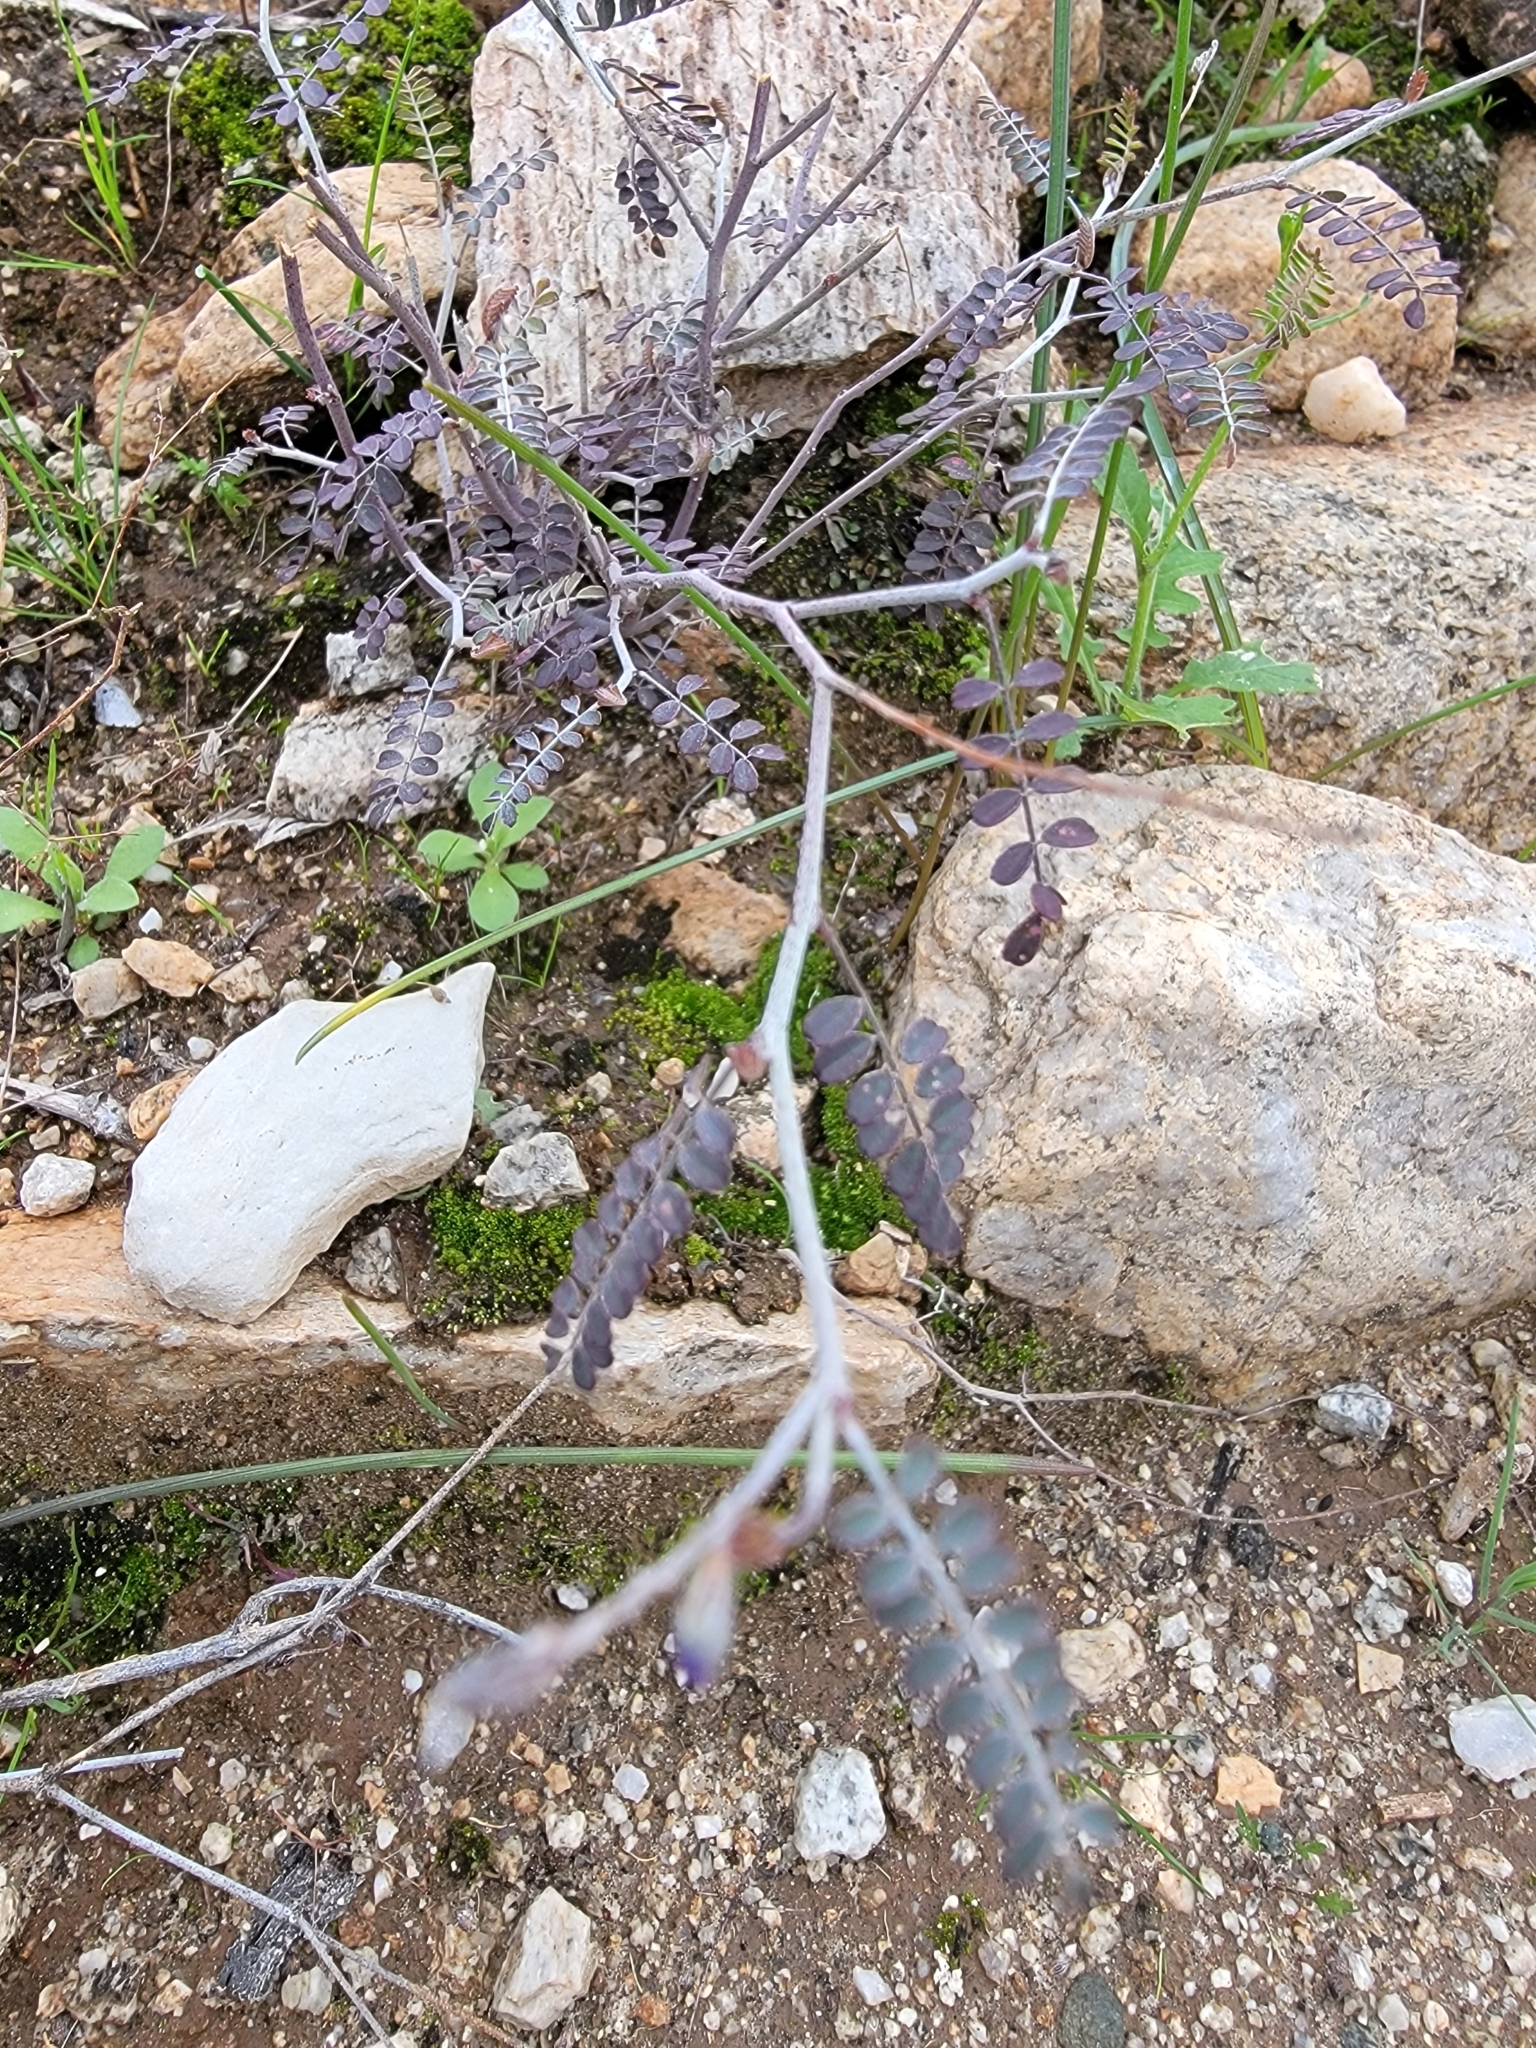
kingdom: Plantae
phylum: Tracheophyta
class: Magnoliopsida
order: Fabales
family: Fabaceae
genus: Marina
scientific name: Marina parryi
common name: Parry's marina
